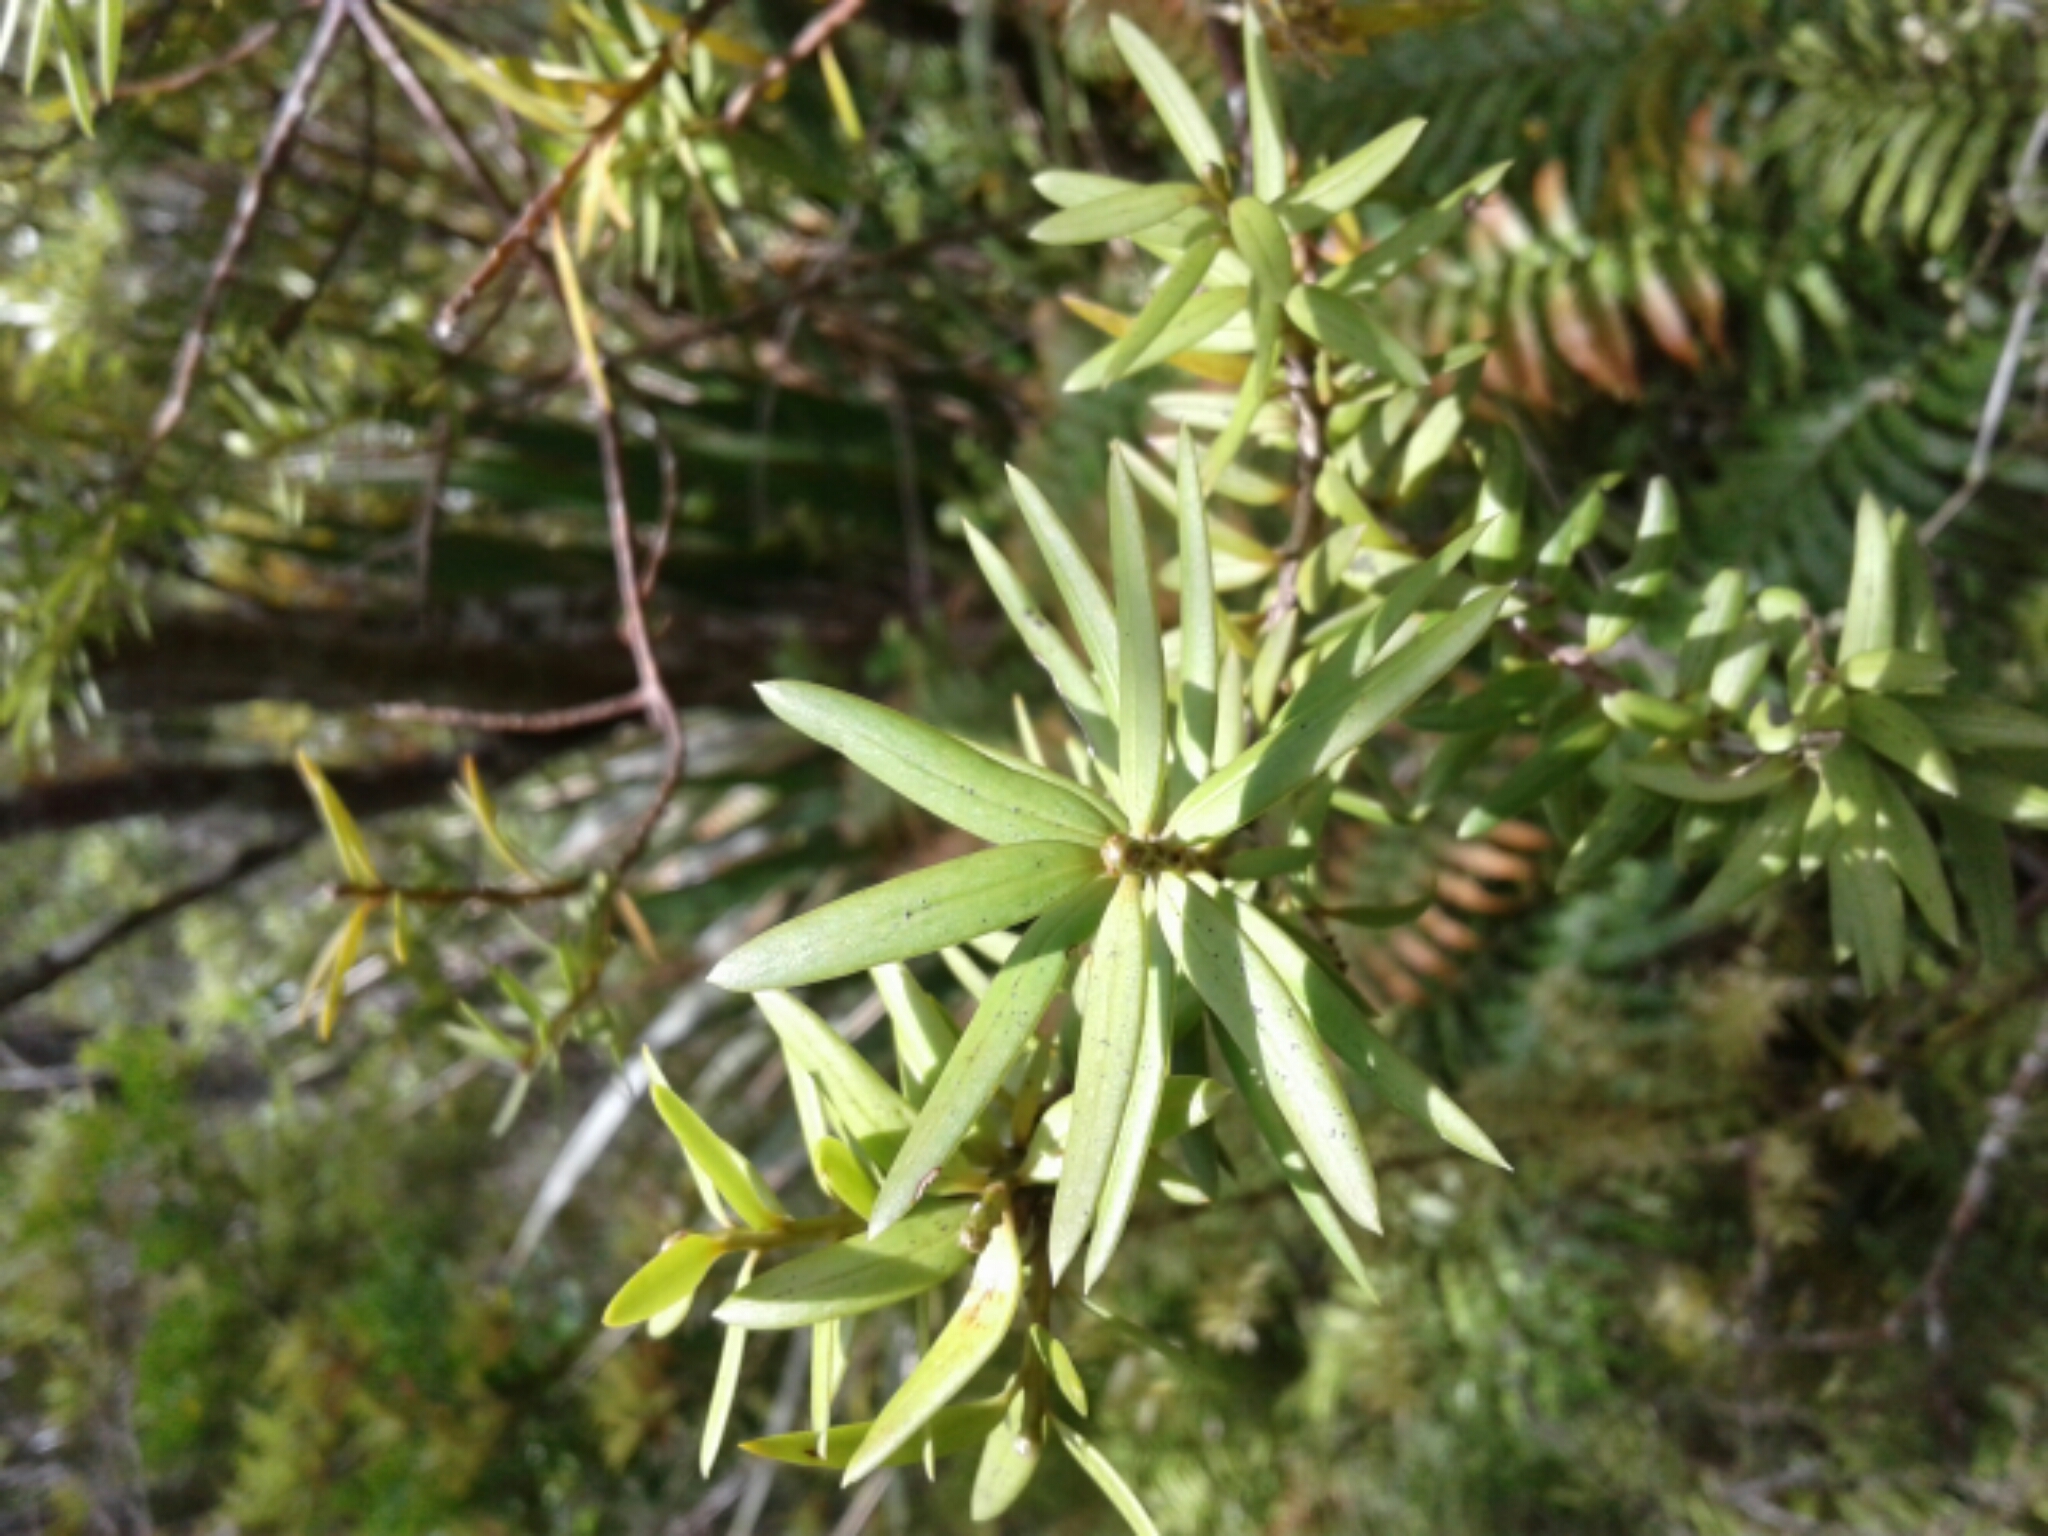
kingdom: Plantae
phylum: Tracheophyta
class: Pinopsida
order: Pinales
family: Podocarpaceae
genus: Podocarpus
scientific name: Podocarpus
